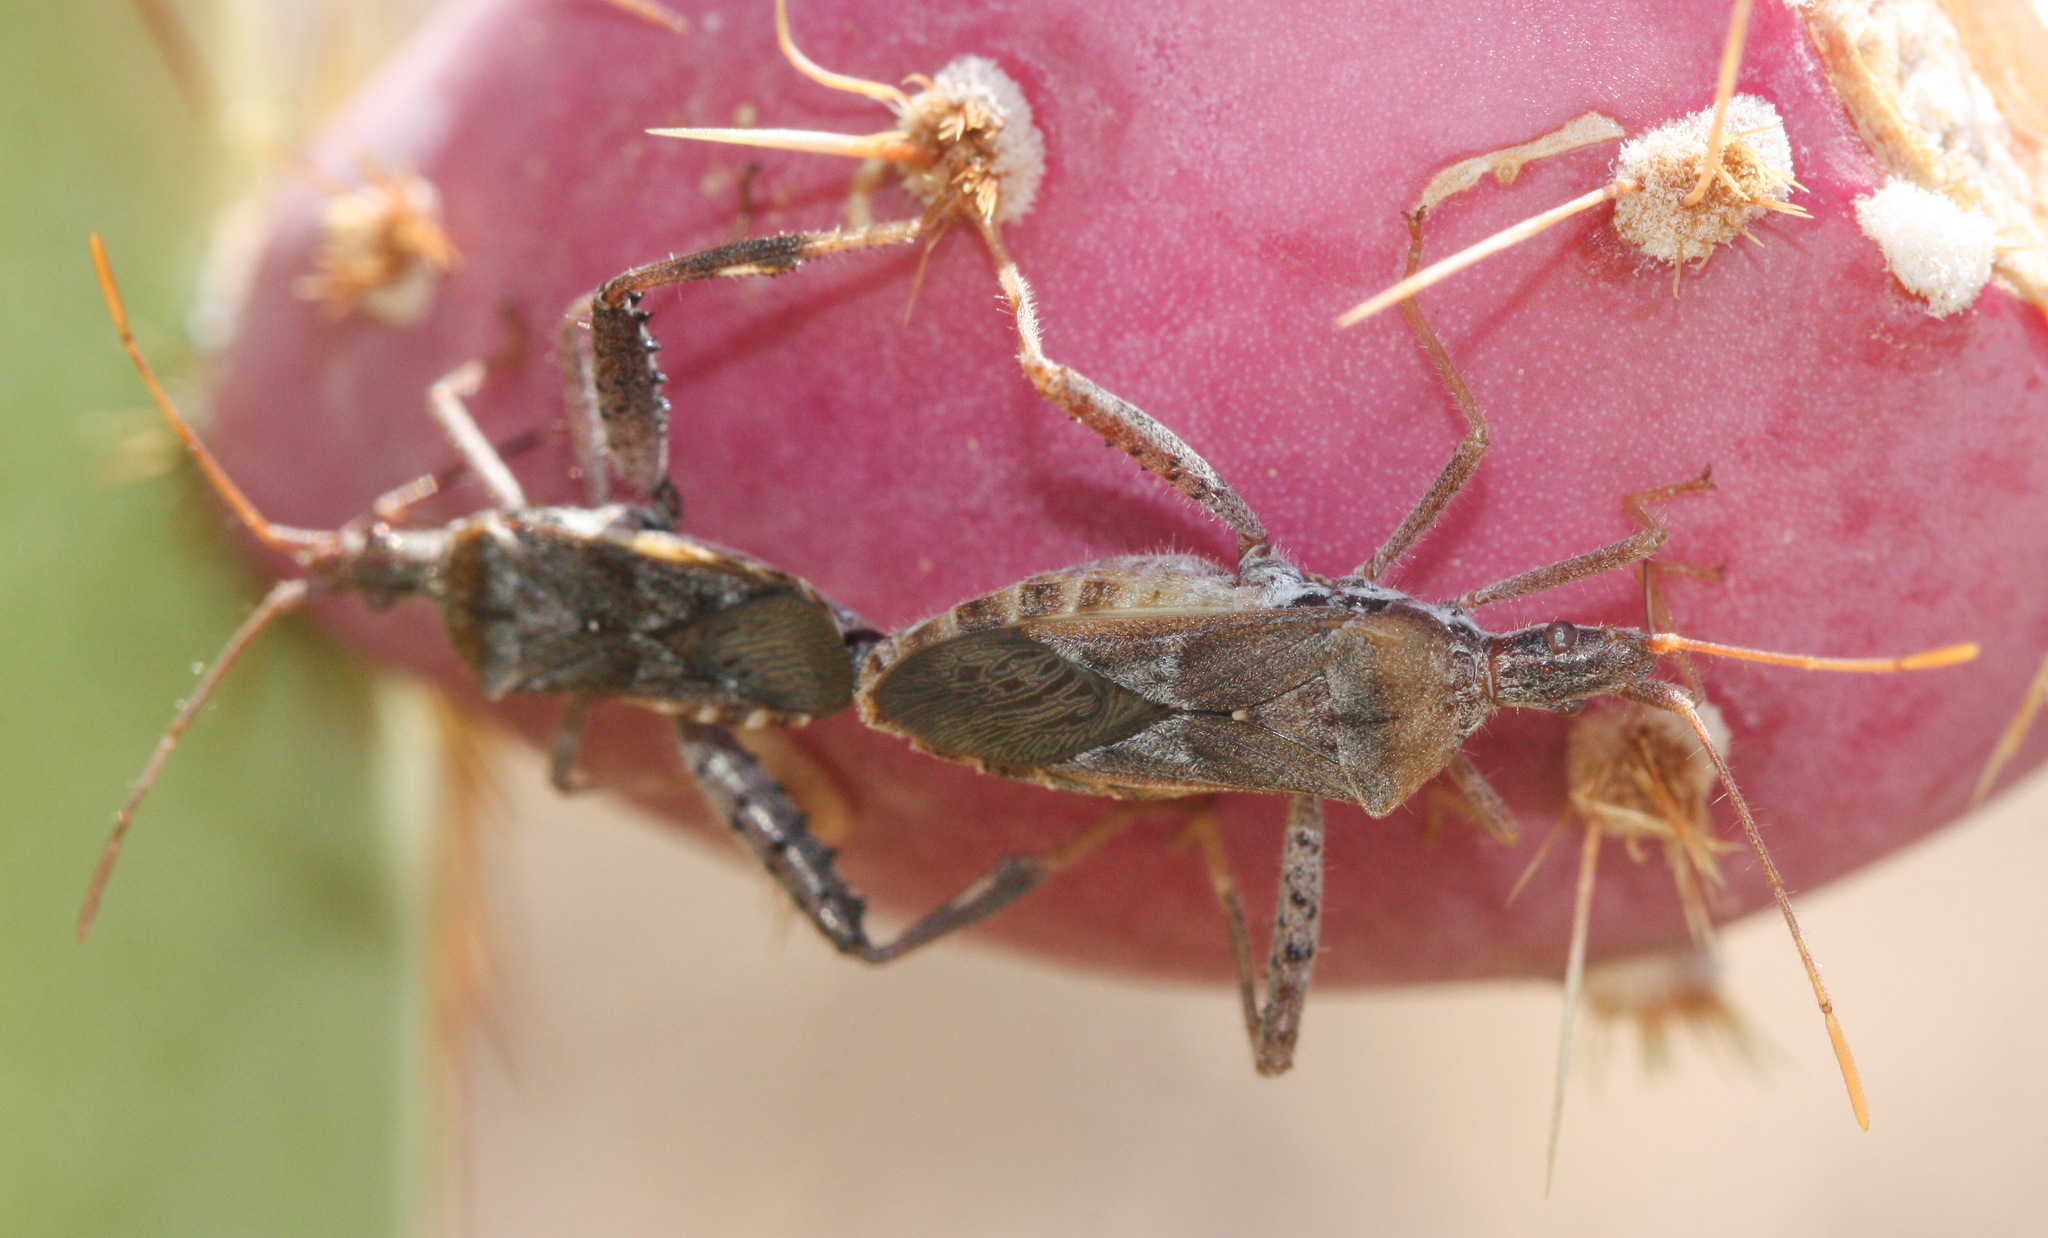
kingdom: Animalia
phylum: Arthropoda
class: Insecta
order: Hemiptera
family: Coreidae
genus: Narnia
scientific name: Narnia femorata
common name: Leaf-footed cactus bug
